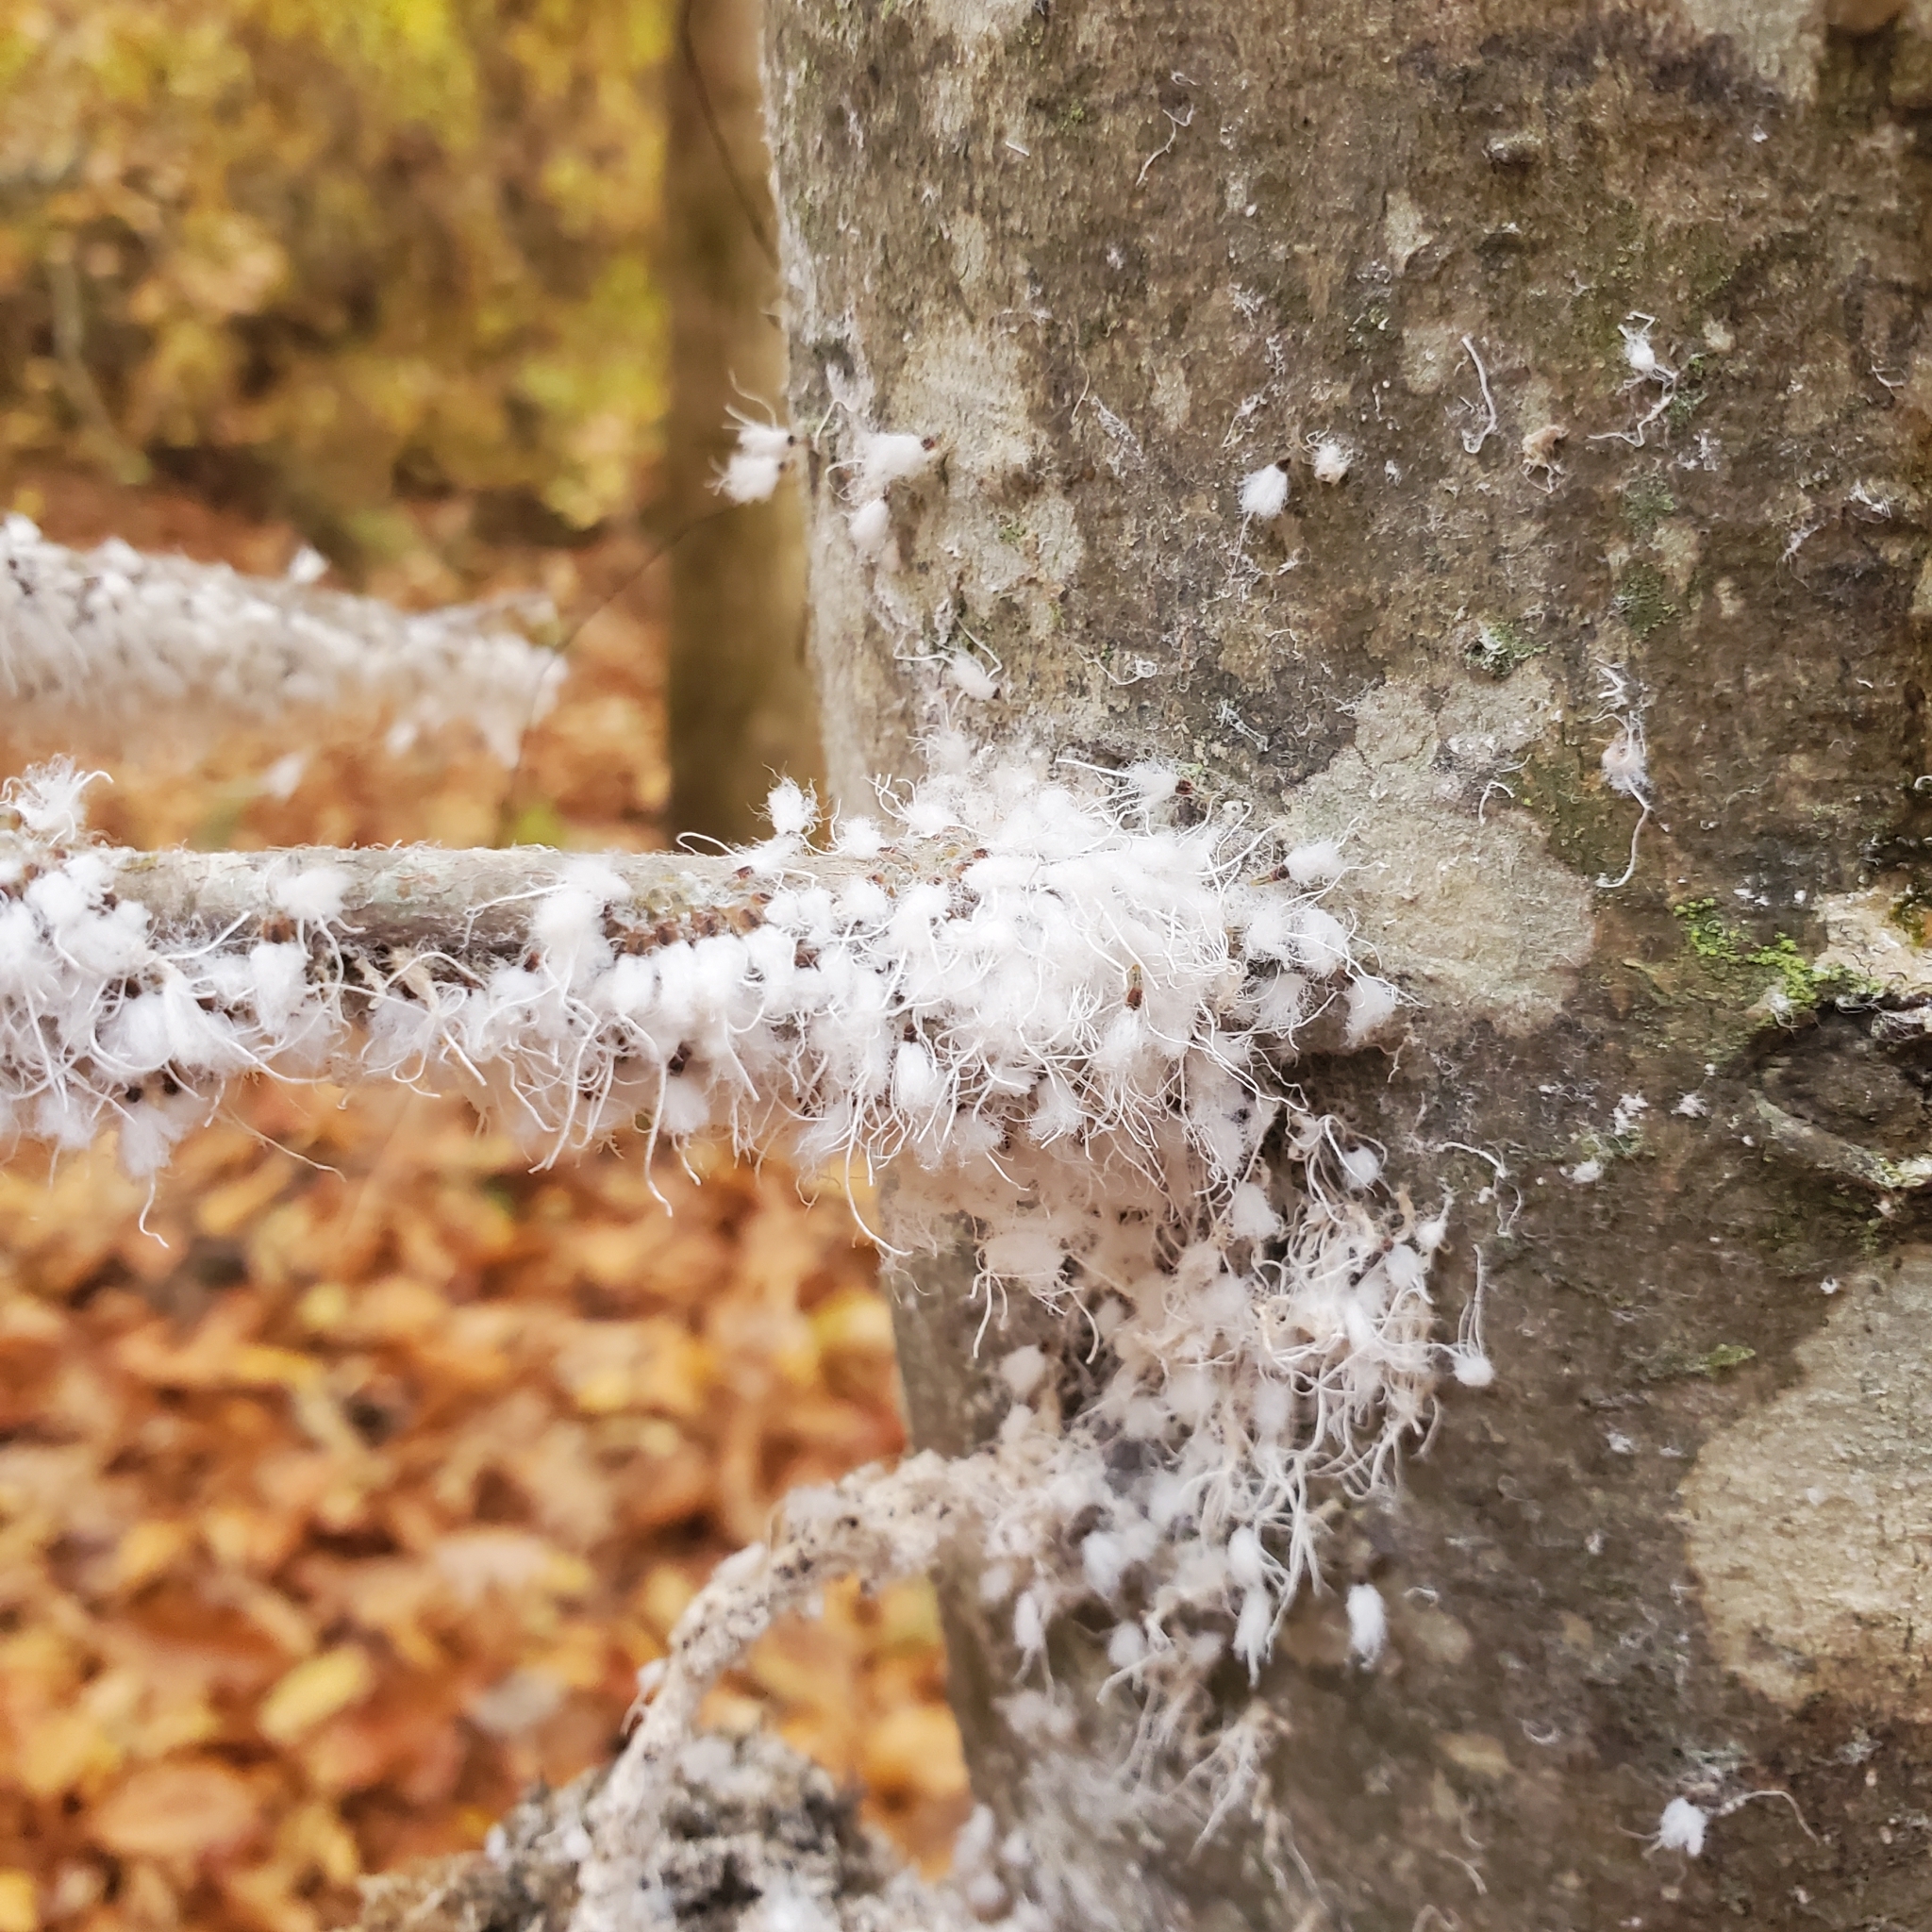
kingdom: Animalia
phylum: Arthropoda
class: Insecta
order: Hemiptera
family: Aphididae
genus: Grylloprociphilus
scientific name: Grylloprociphilus imbricator
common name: Beech blight aphid
